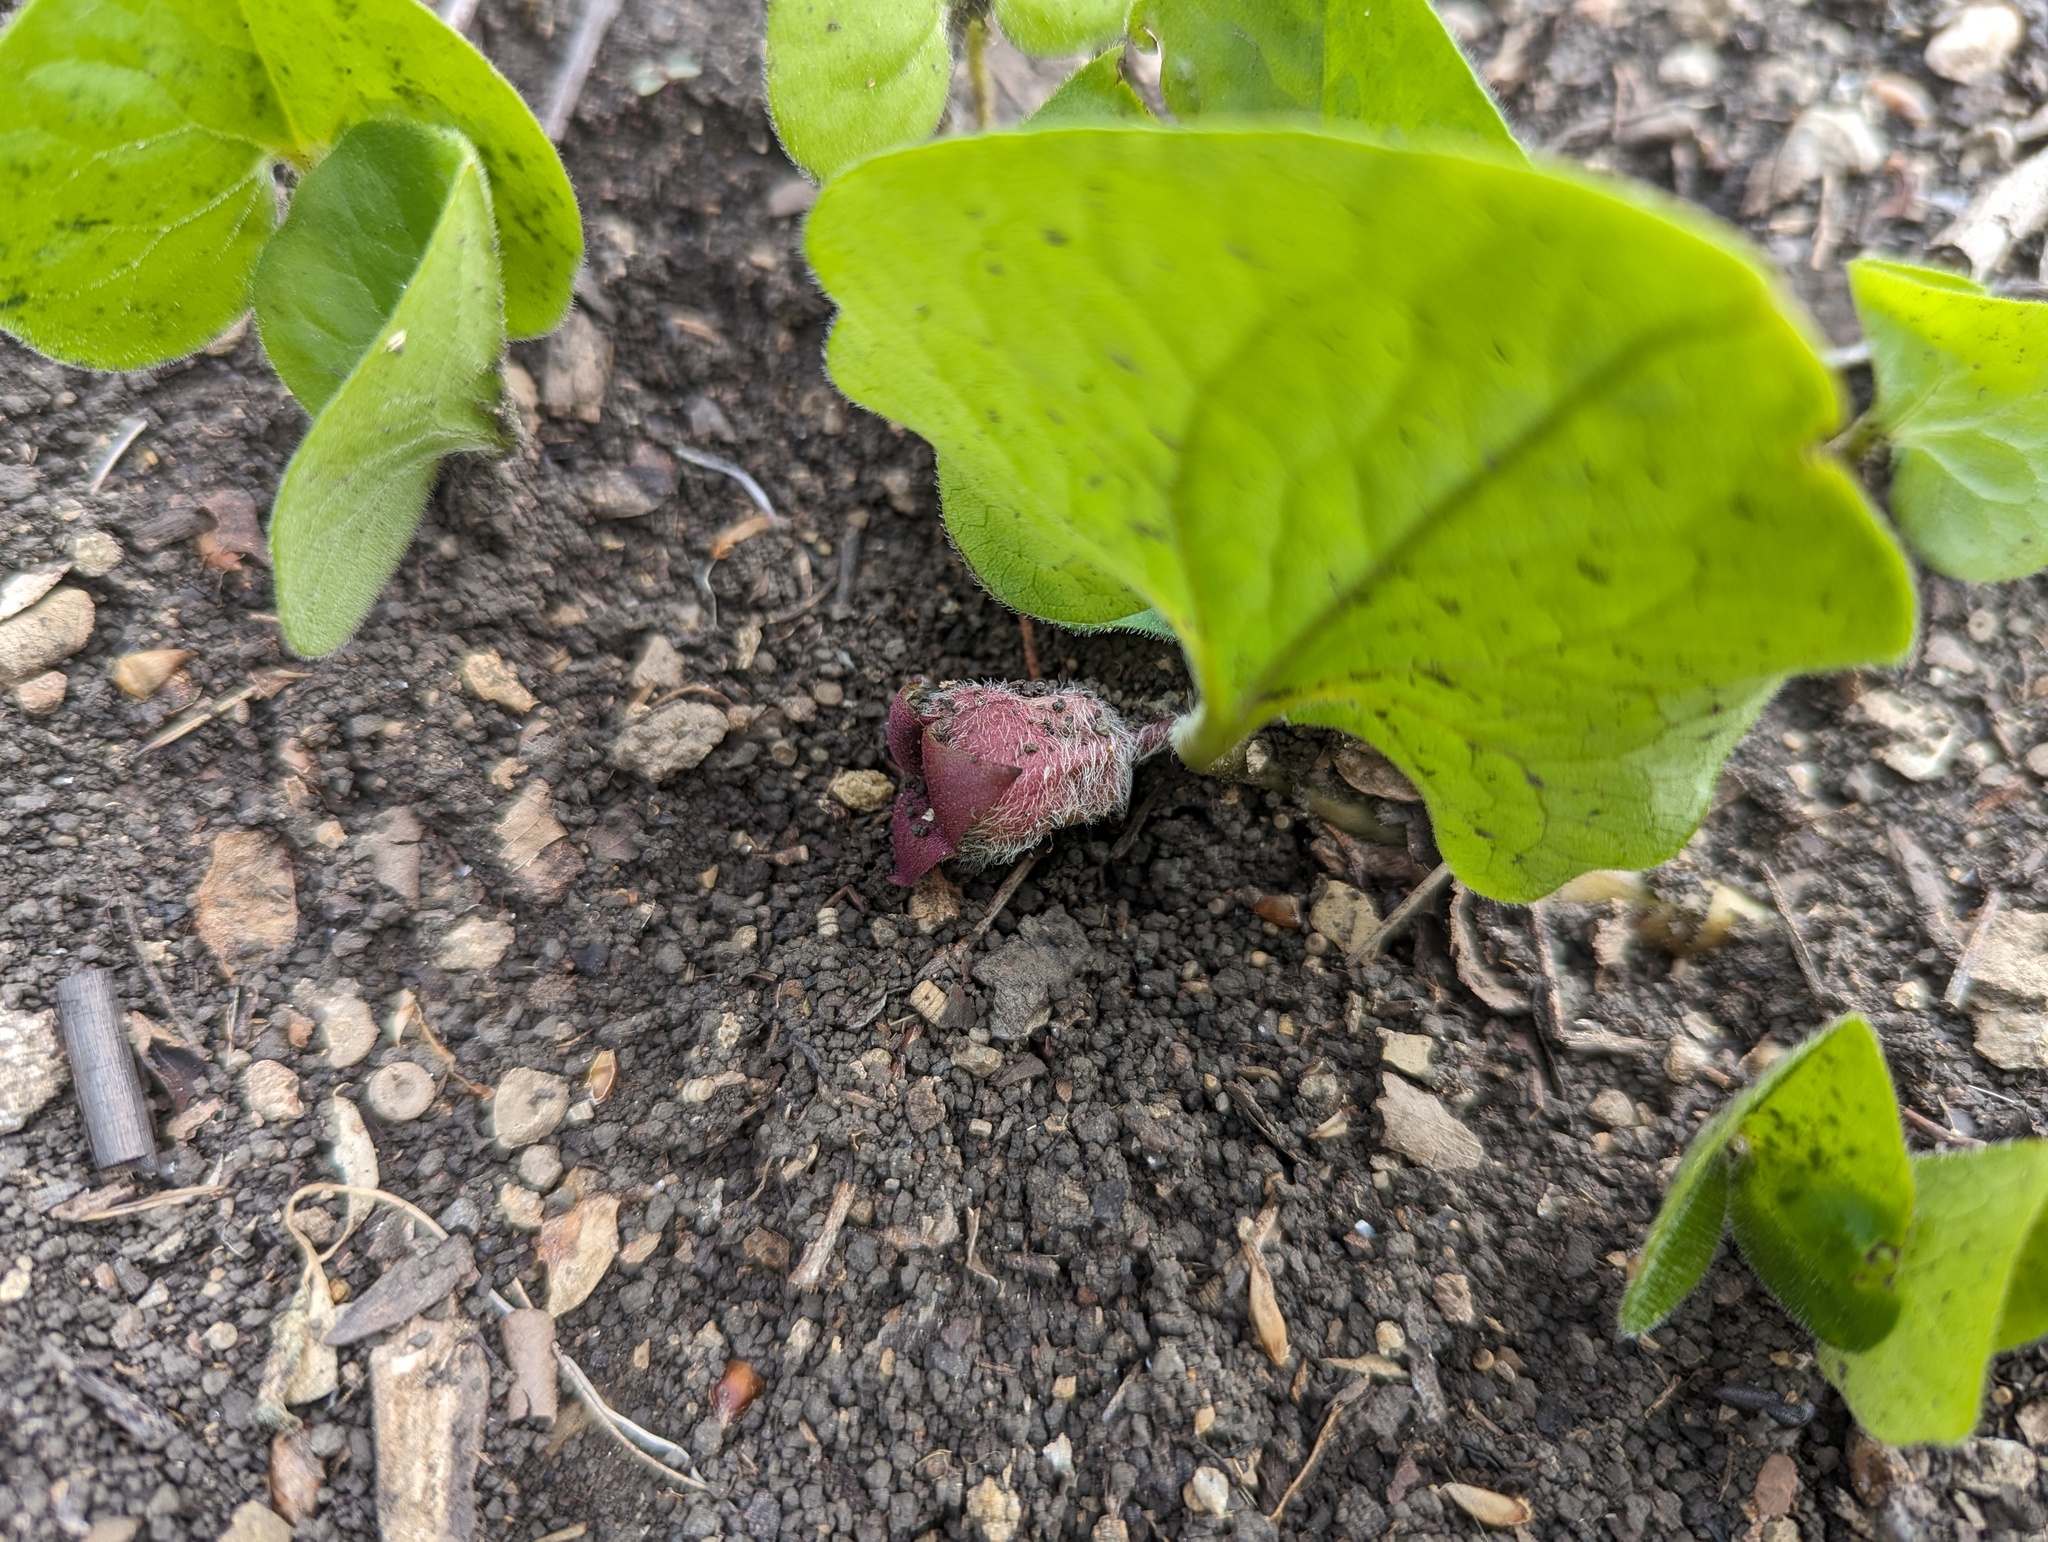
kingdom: Plantae
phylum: Tracheophyta
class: Magnoliopsida
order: Piperales
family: Aristolochiaceae
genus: Asarum
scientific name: Asarum canadense
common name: Wild ginger
